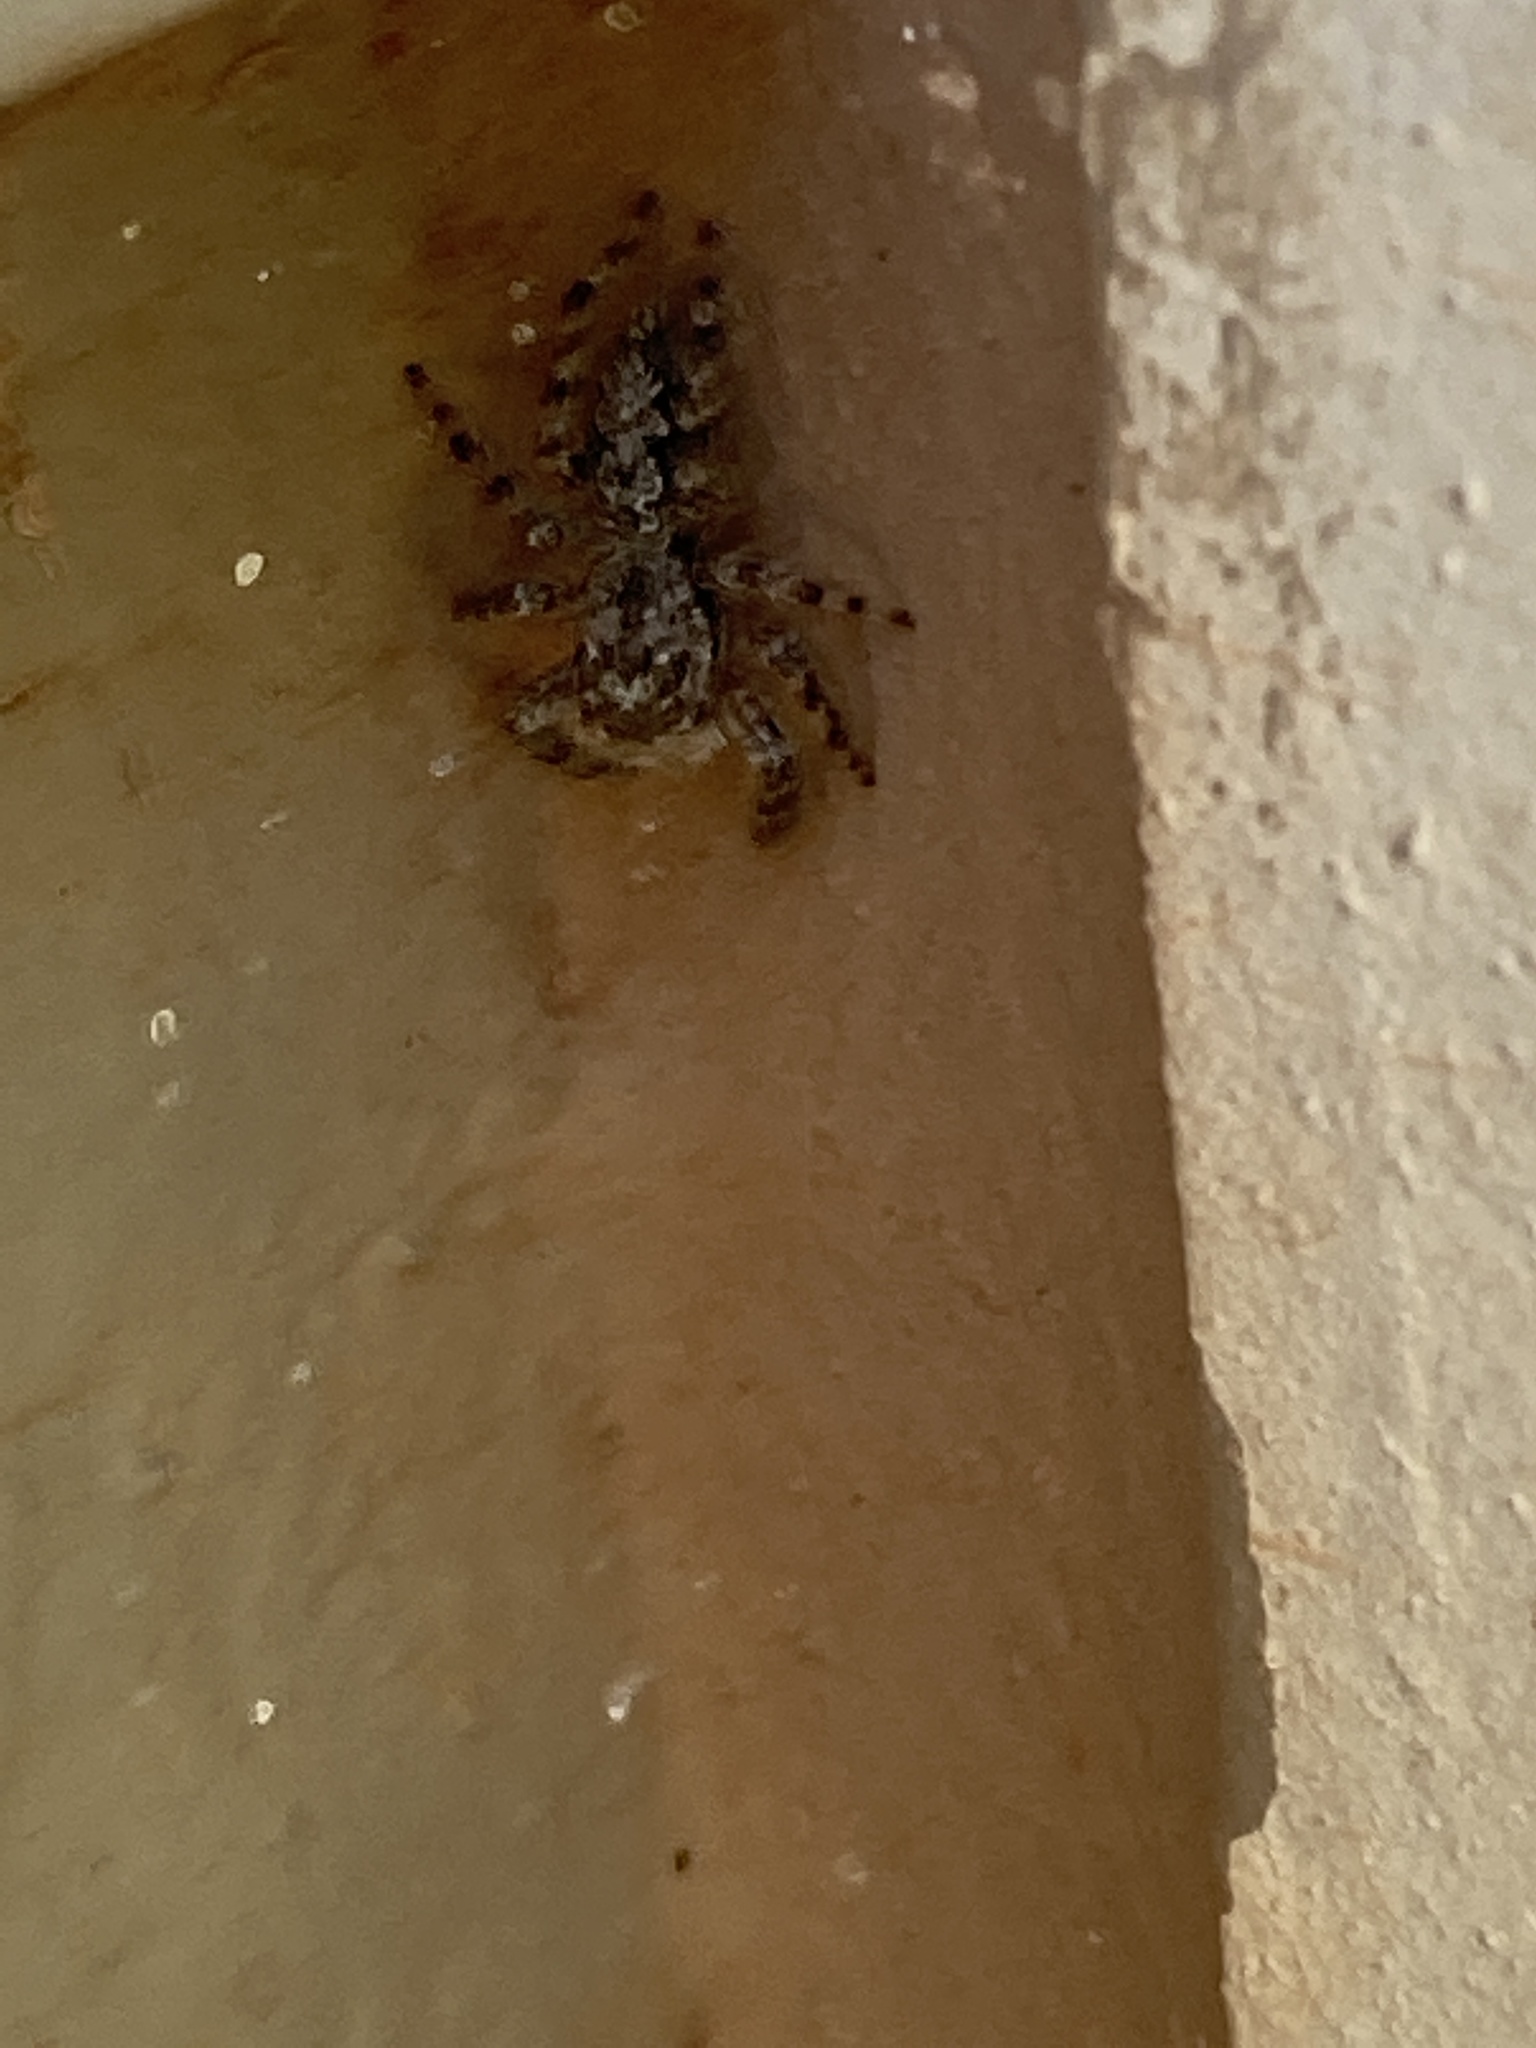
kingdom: Animalia
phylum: Arthropoda
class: Arachnida
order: Araneae
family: Salticidae
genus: Platycryptus
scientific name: Platycryptus undatus
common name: Tan jumping spider
